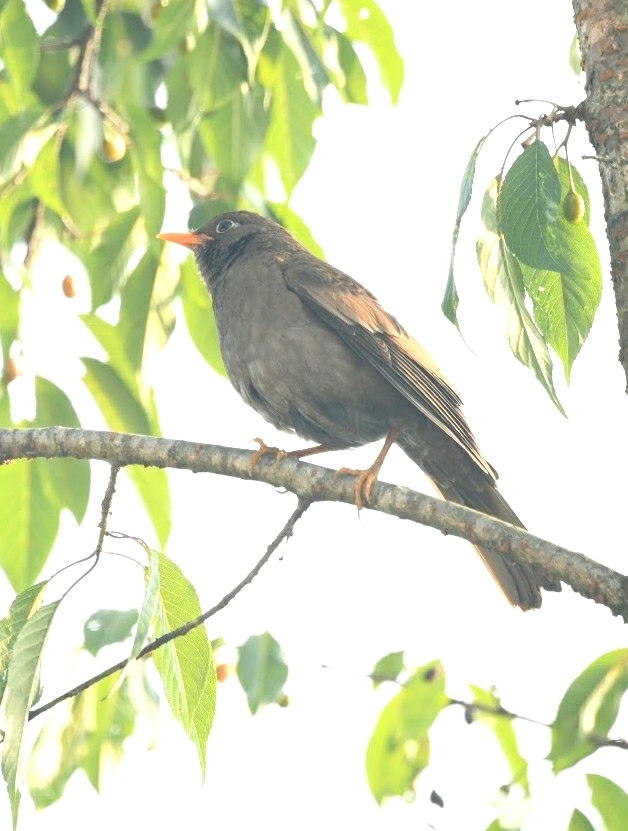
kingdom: Animalia
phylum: Chordata
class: Aves
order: Passeriformes
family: Turdidae
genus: Turdus
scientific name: Turdus boulboul
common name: Grey-winged blackbird
